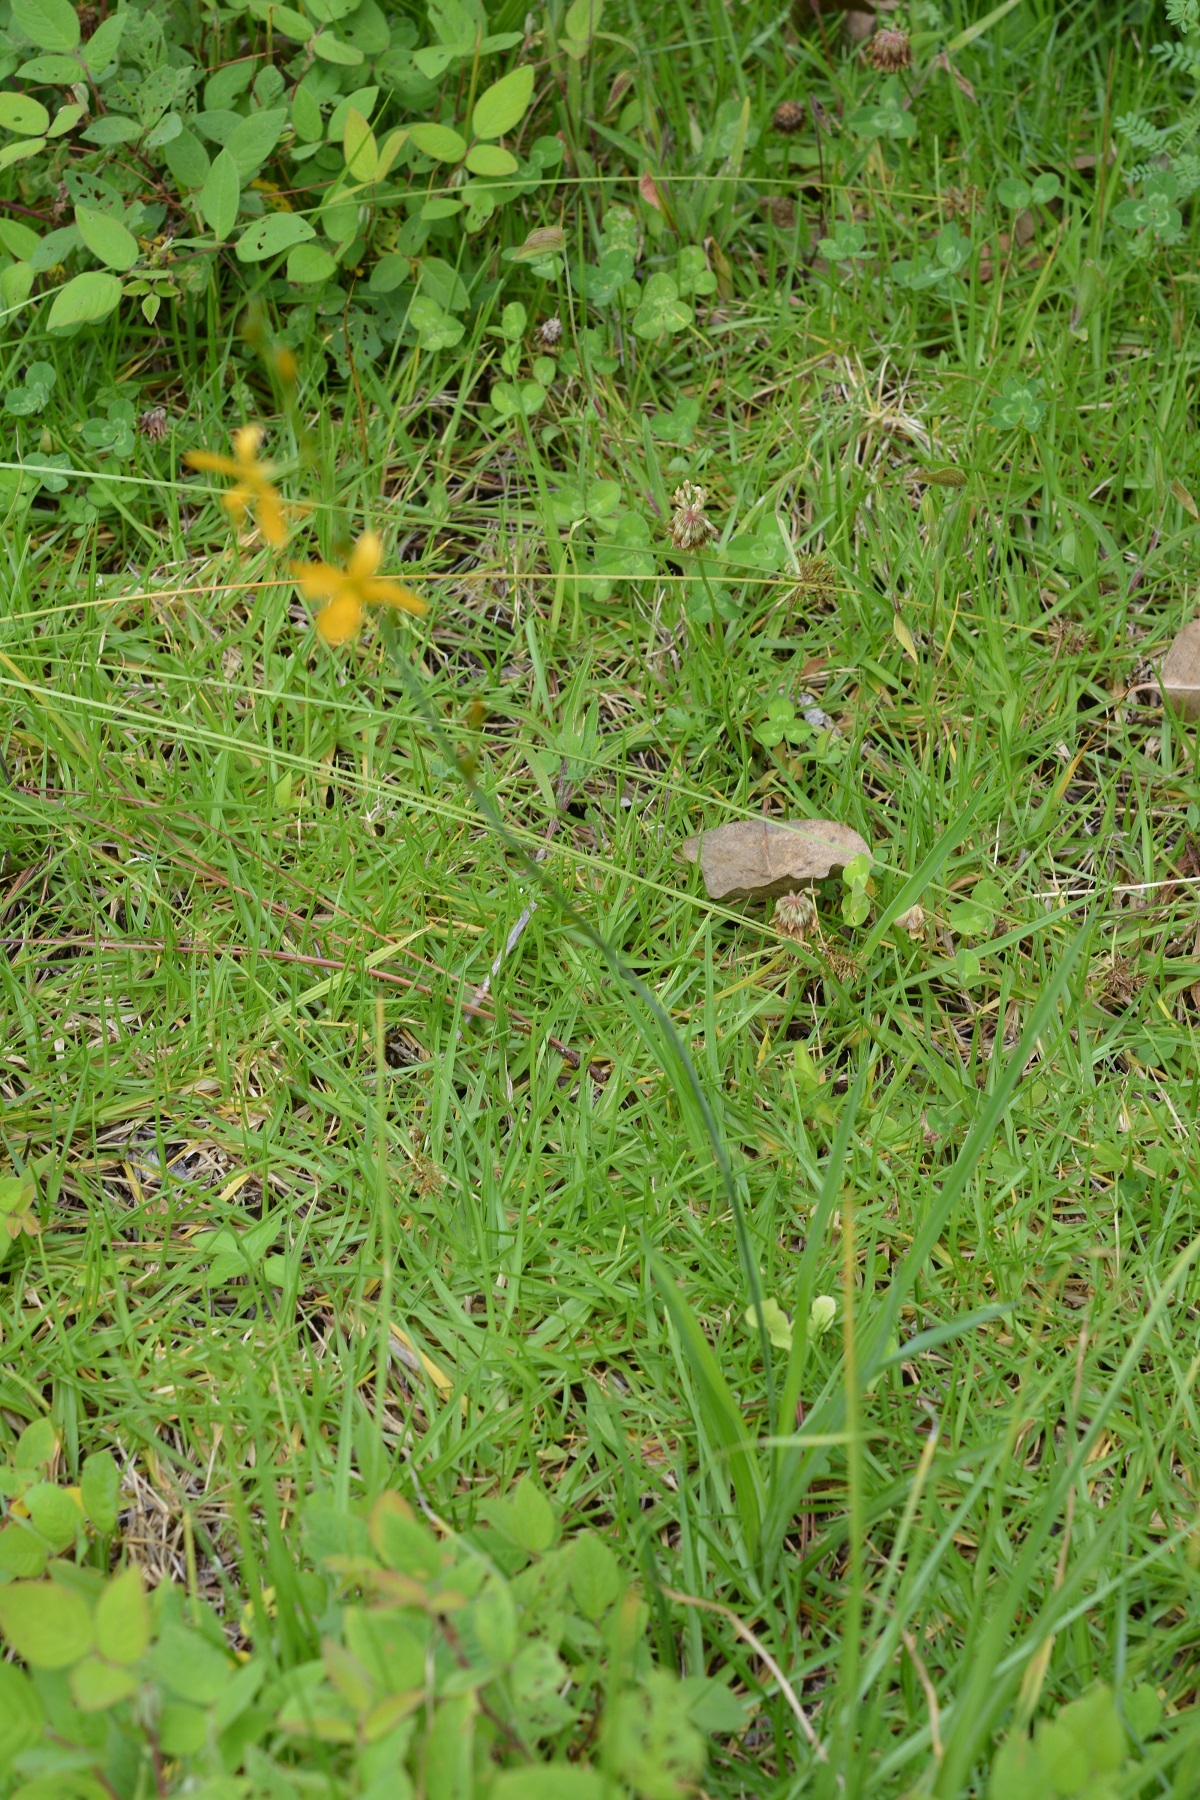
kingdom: Plantae
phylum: Tracheophyta
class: Liliopsida
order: Asparagales
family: Asparagaceae
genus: Echeandia
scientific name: Echeandia skinneri
